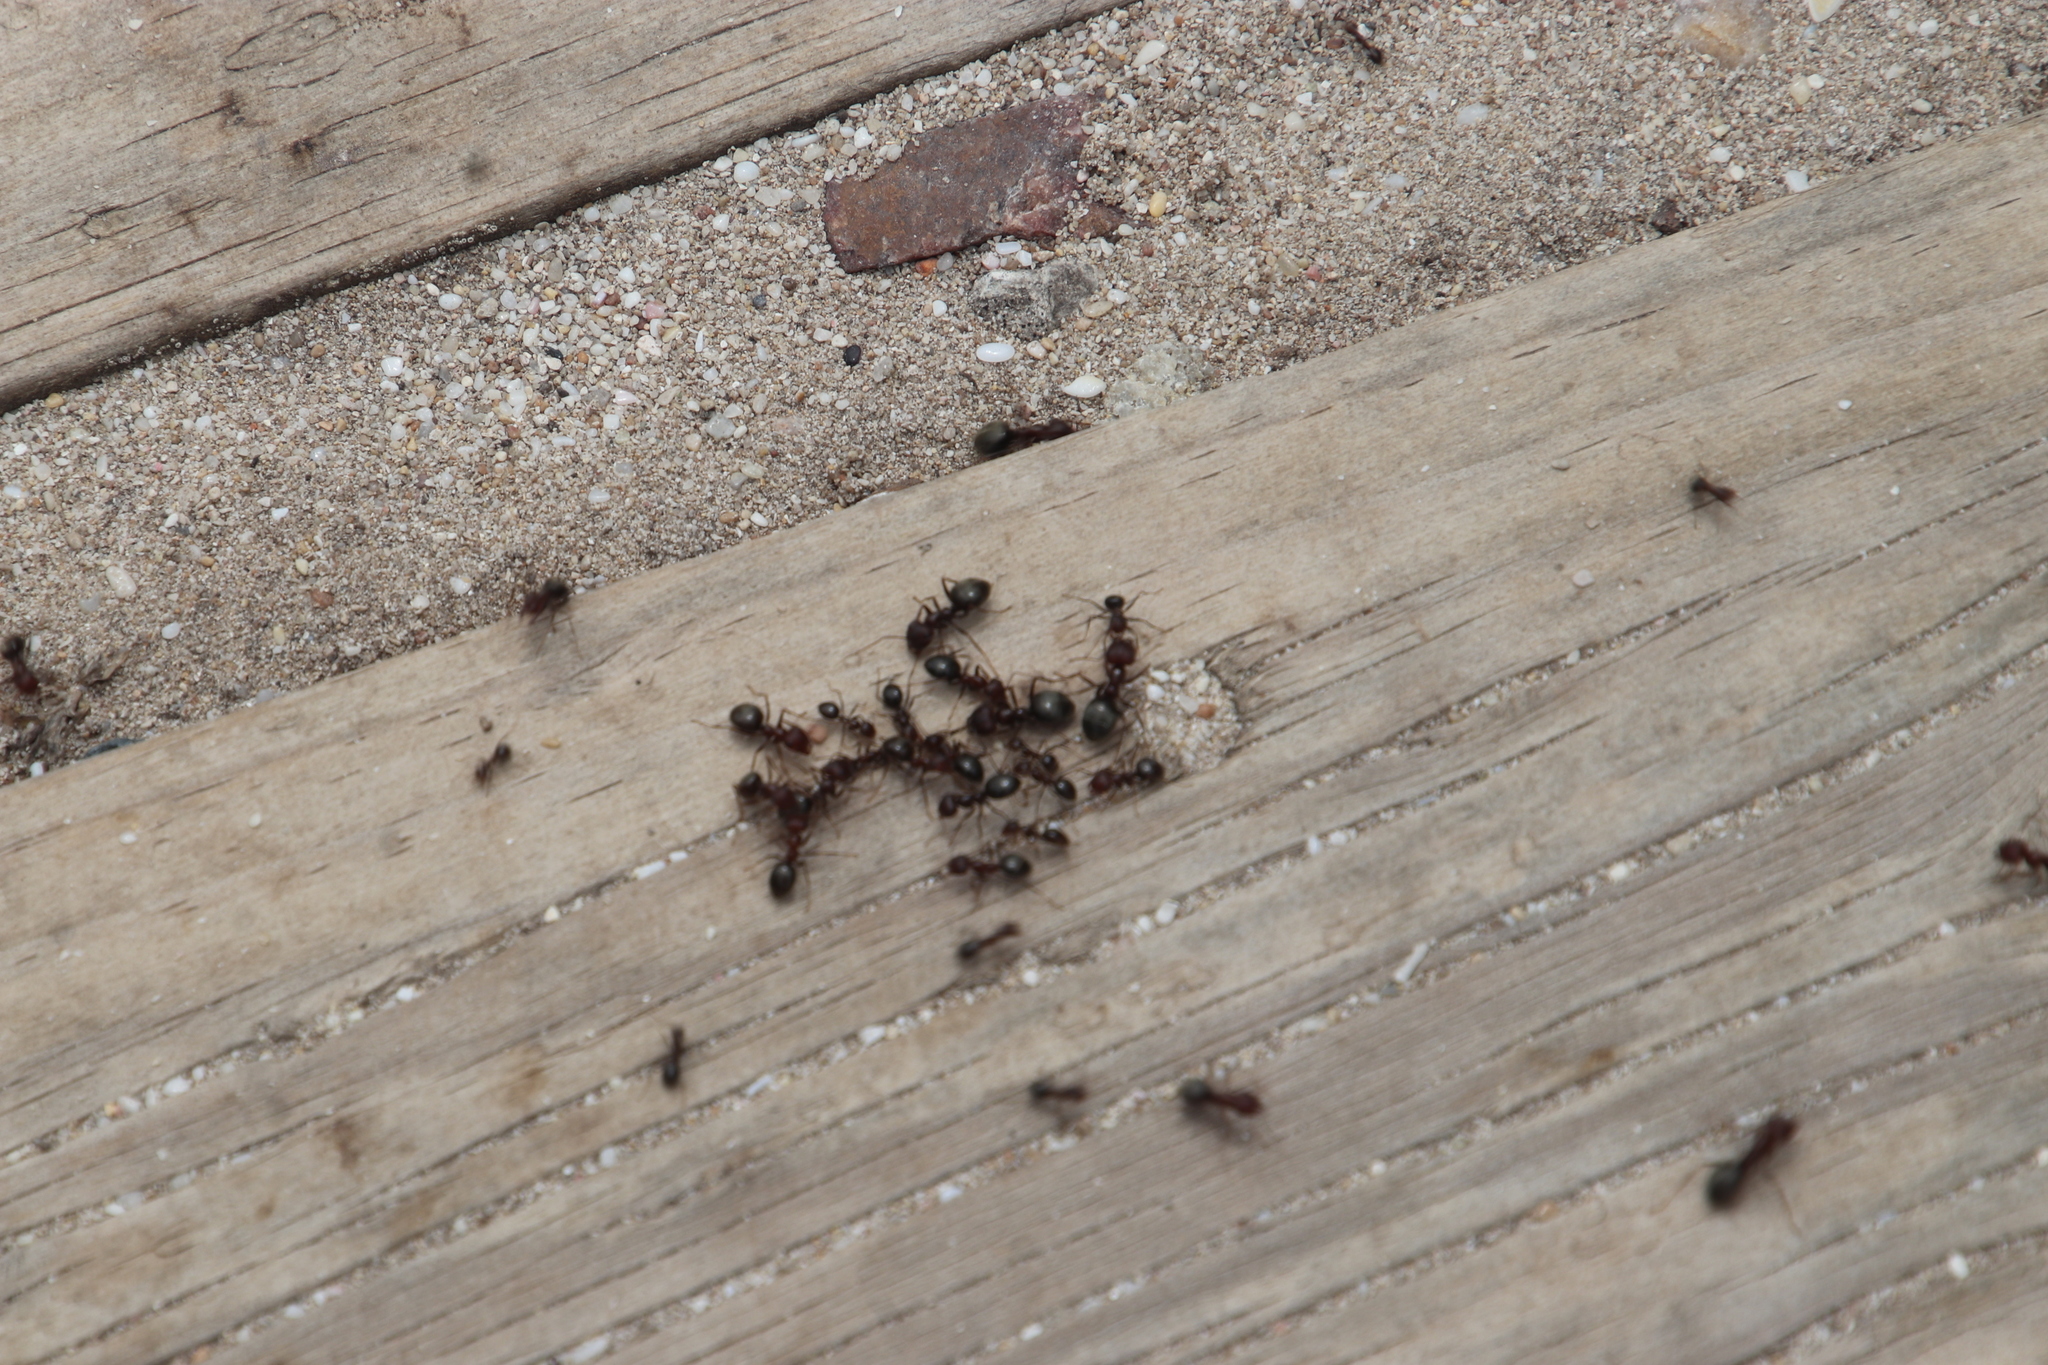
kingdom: Animalia
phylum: Arthropoda
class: Insecta
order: Hymenoptera
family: Formicidae
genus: Anoplolepis
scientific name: Anoplolepis steingroeveri
